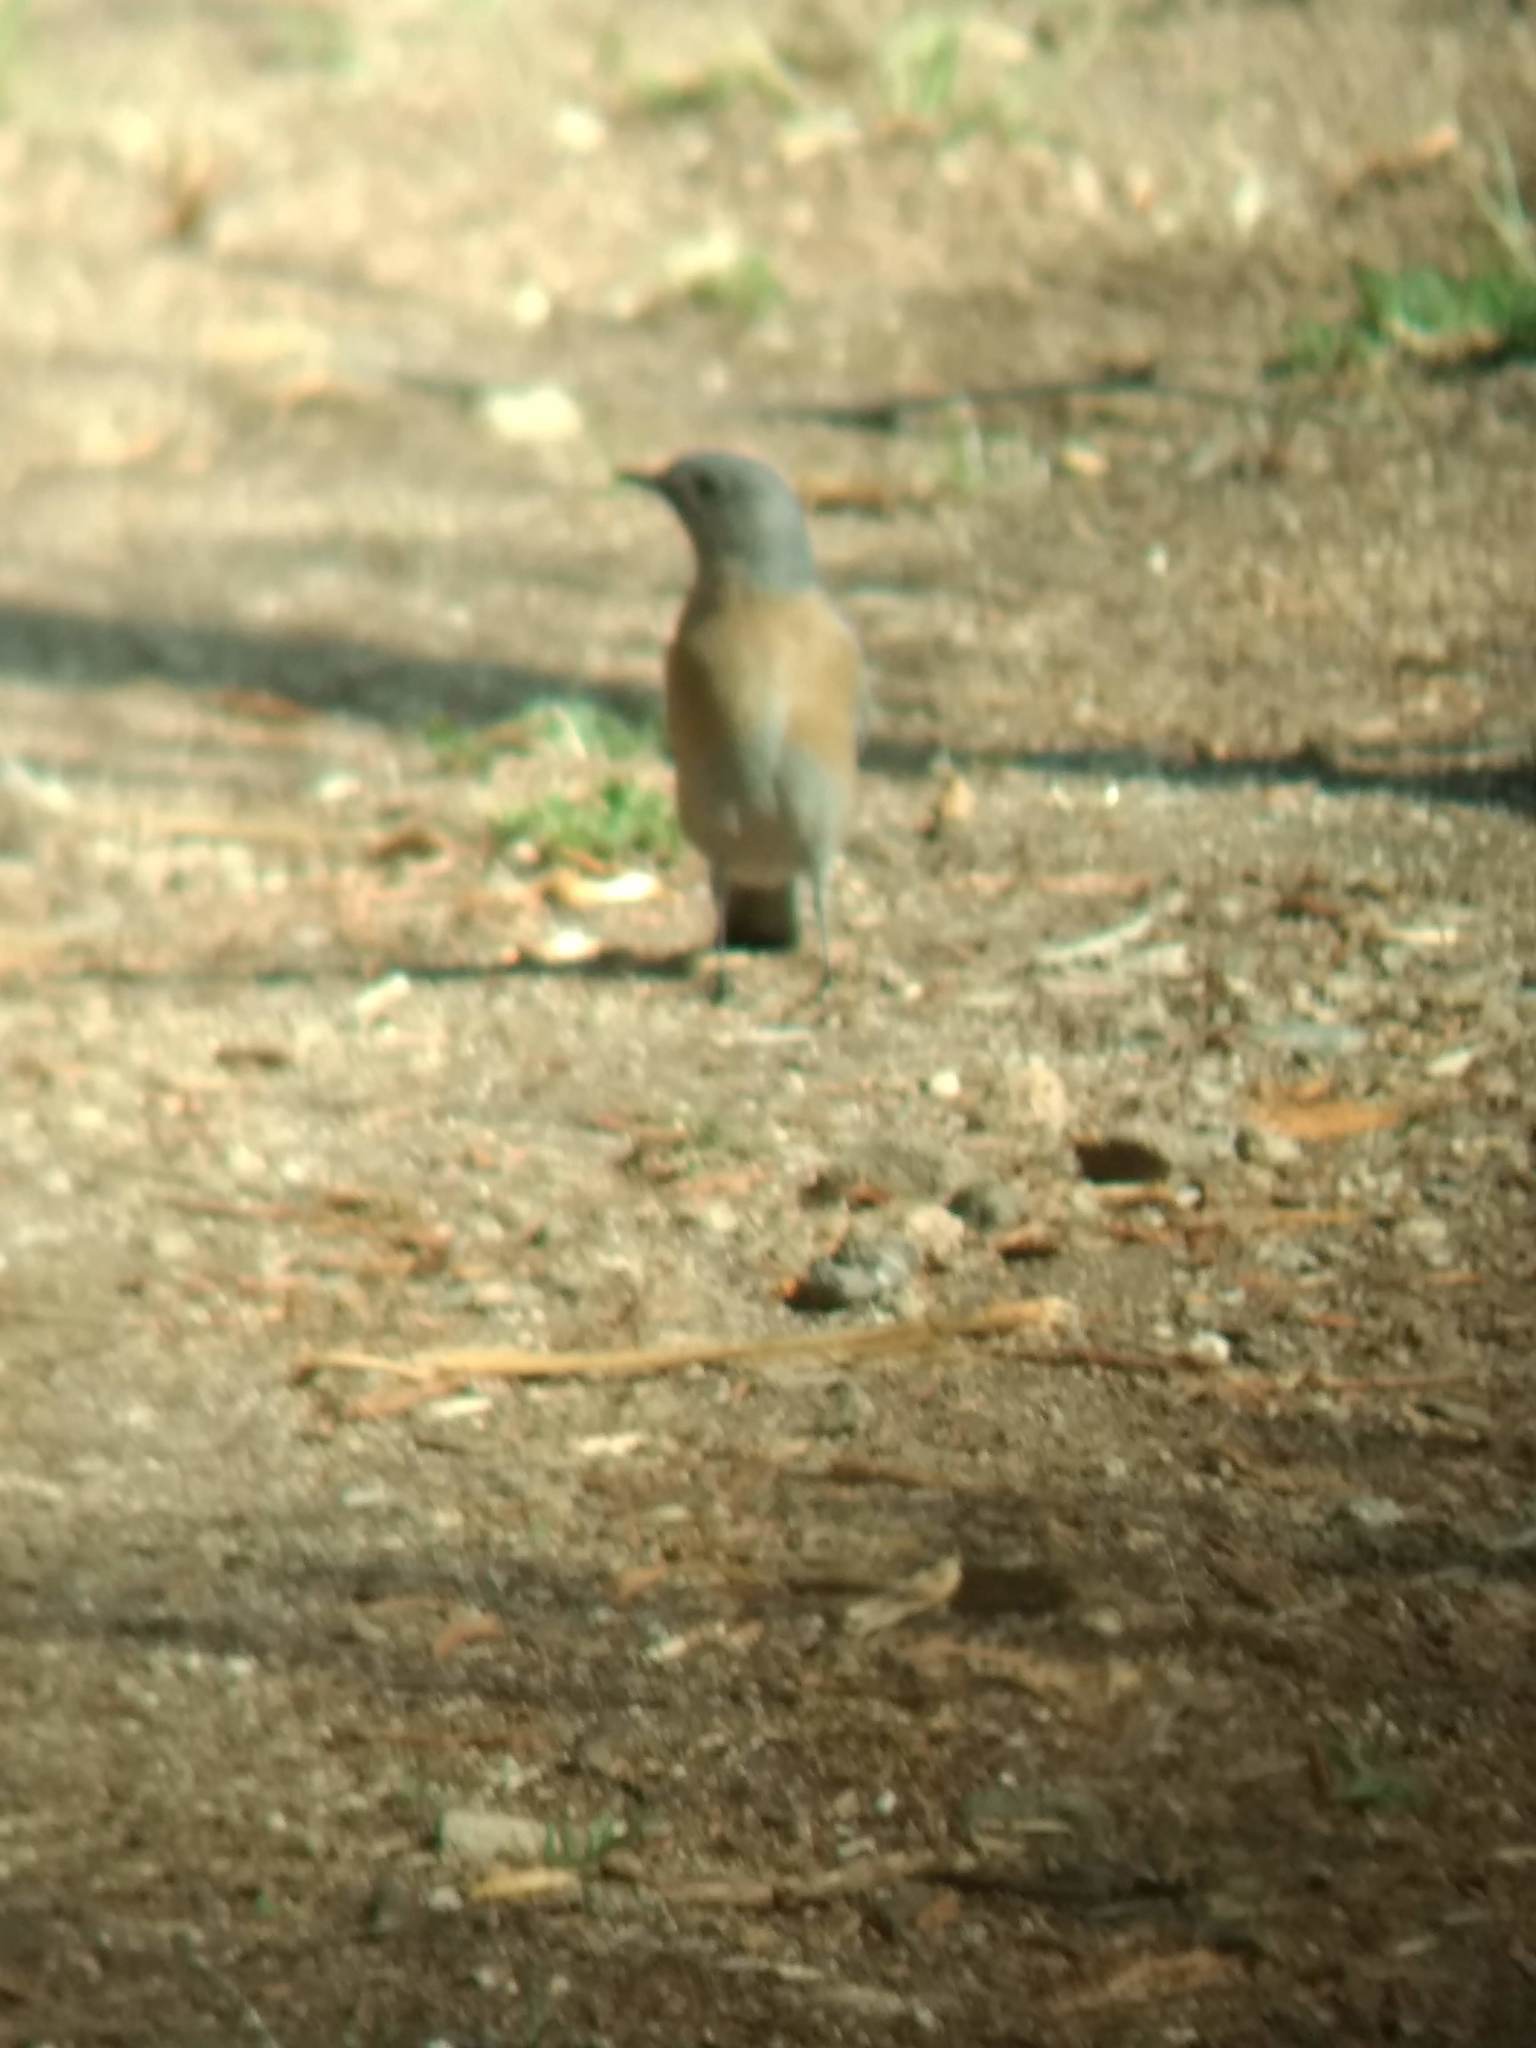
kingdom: Animalia
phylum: Chordata
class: Aves
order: Passeriformes
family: Turdidae
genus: Sialia
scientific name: Sialia mexicana
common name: Western bluebird
